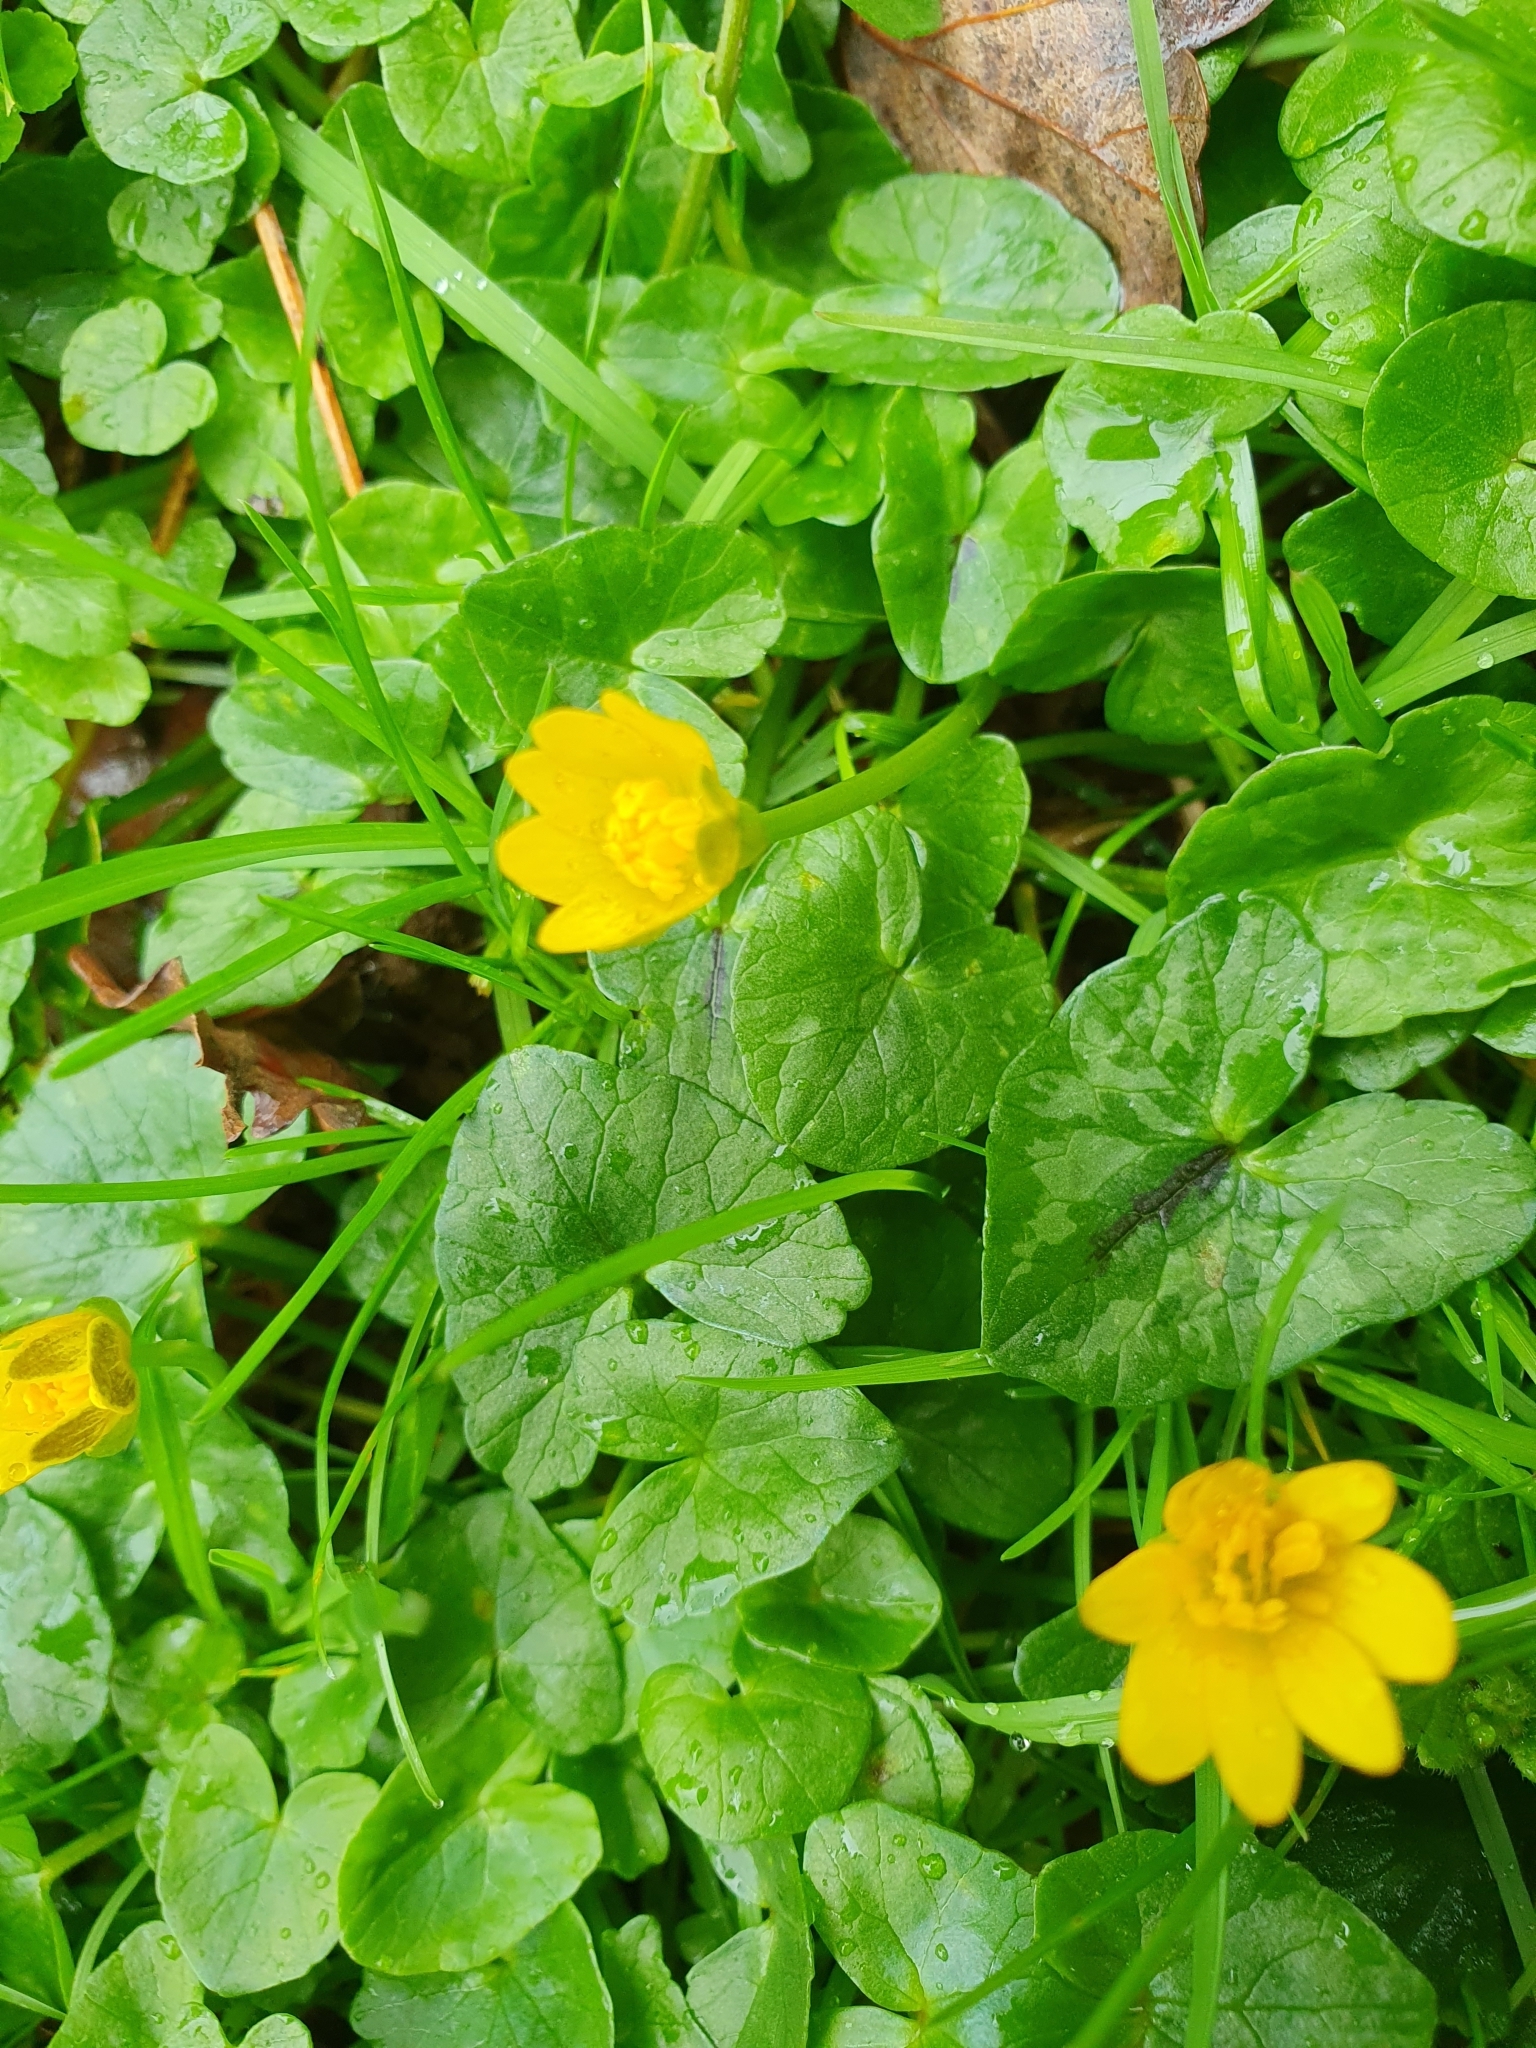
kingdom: Plantae
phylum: Tracheophyta
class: Magnoliopsida
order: Ranunculales
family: Ranunculaceae
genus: Ficaria
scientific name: Ficaria verna
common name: Lesser celandine
